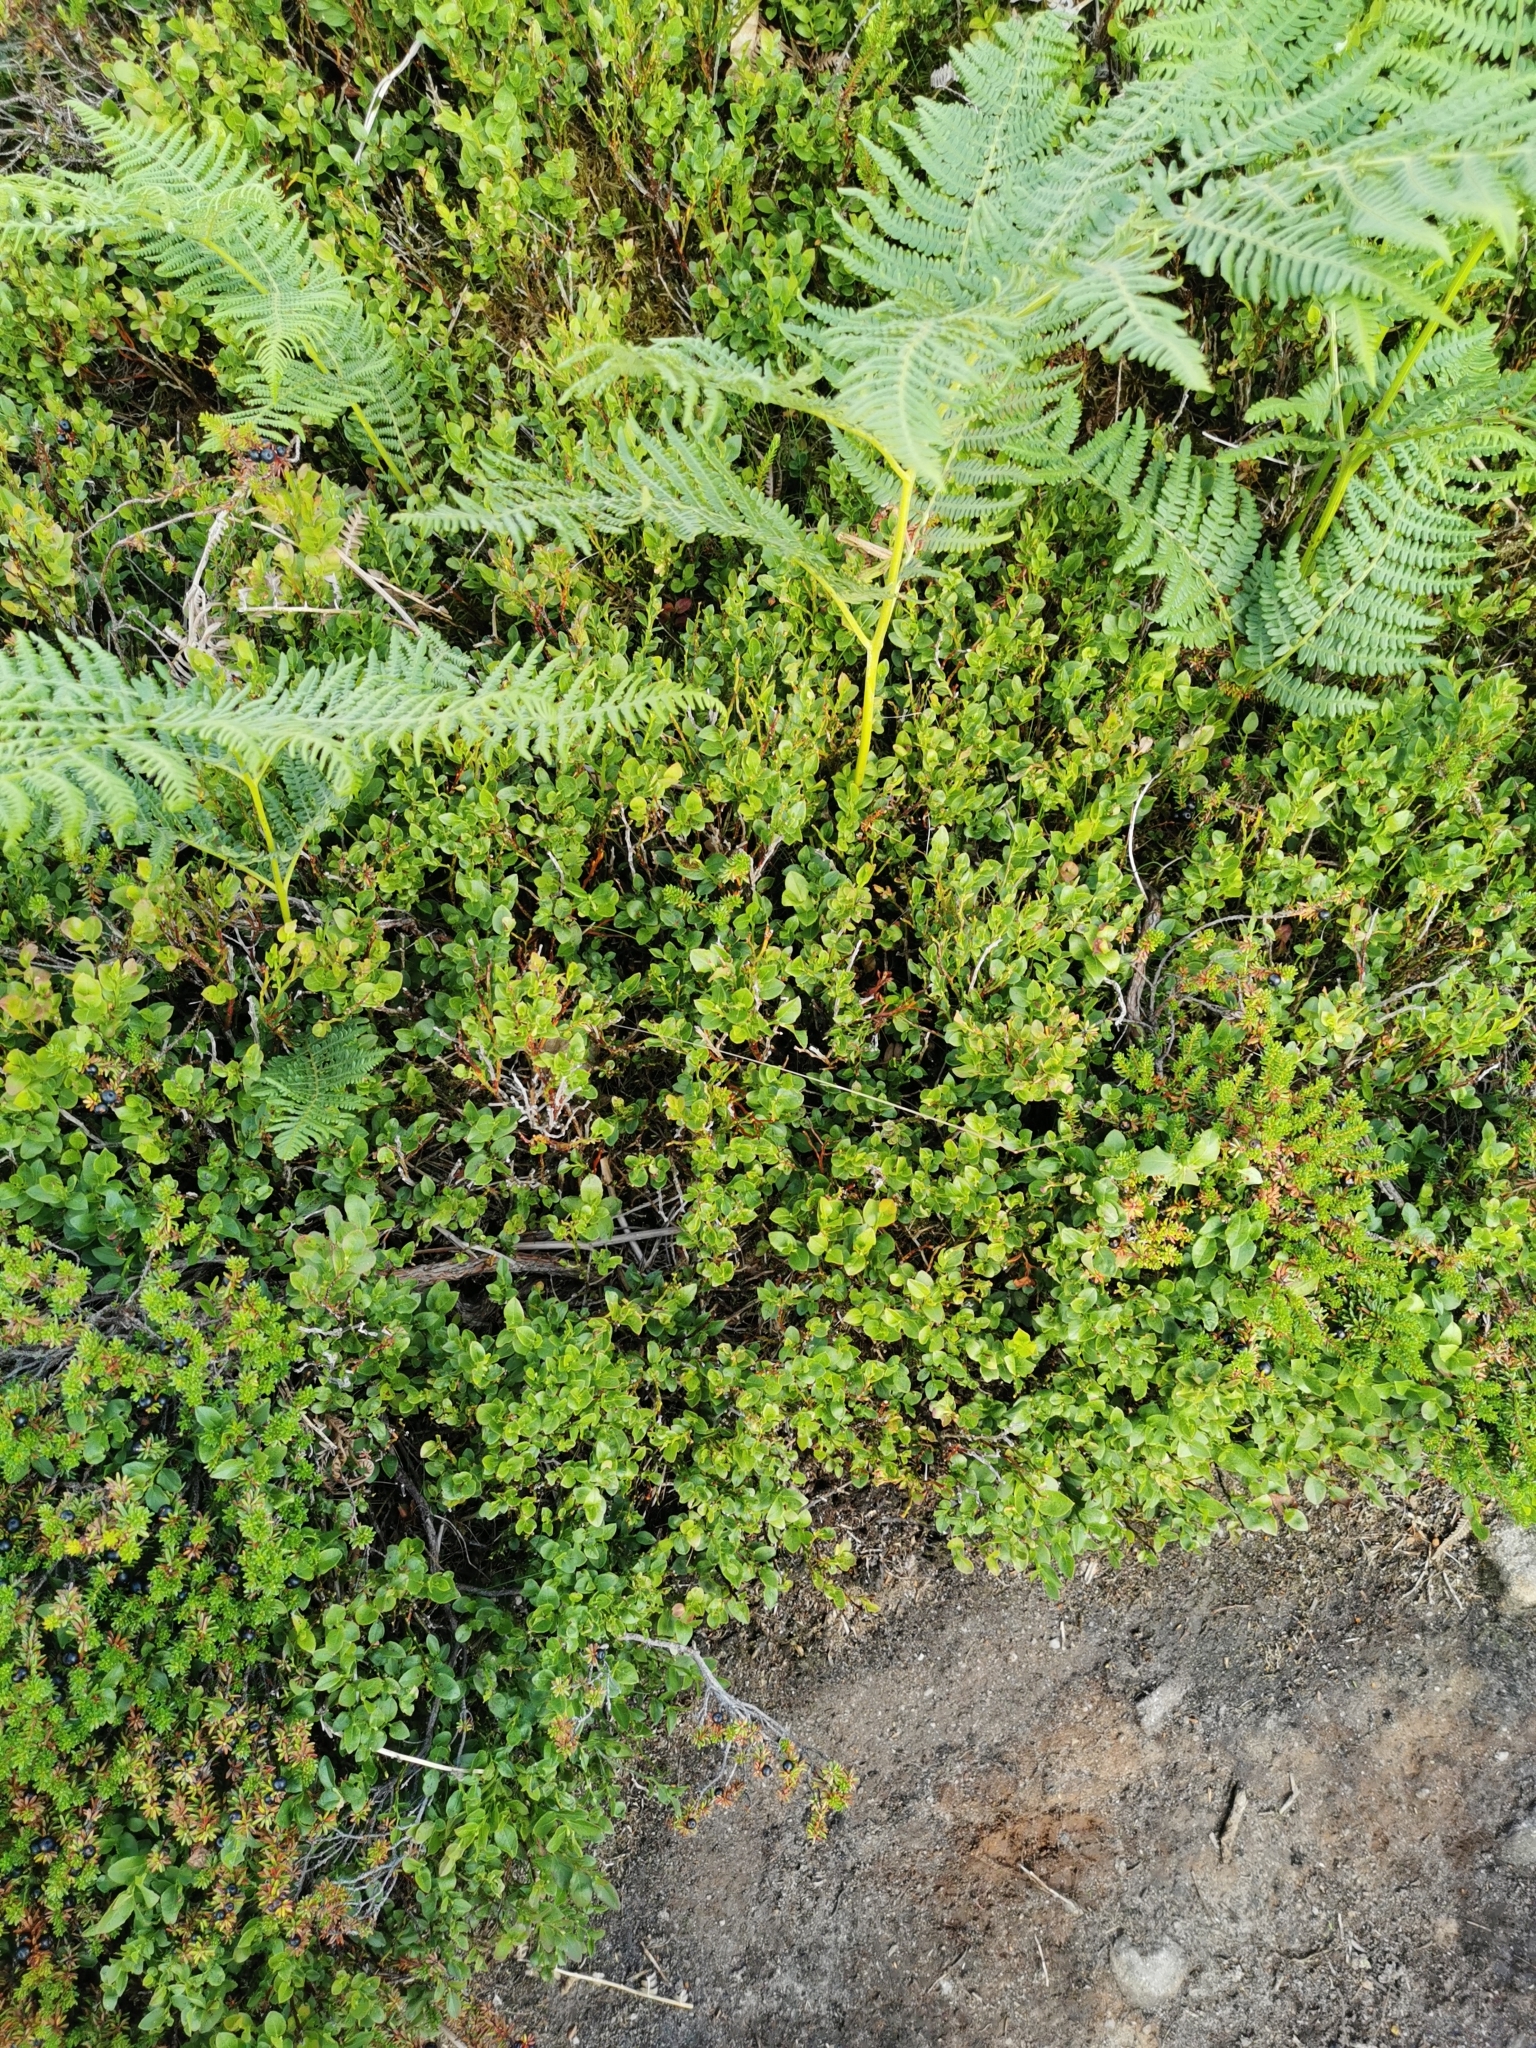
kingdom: Plantae
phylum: Tracheophyta
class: Polypodiopsida
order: Polypodiales
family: Dennstaedtiaceae
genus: Pteridium
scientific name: Pteridium aquilinum
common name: Bracken
